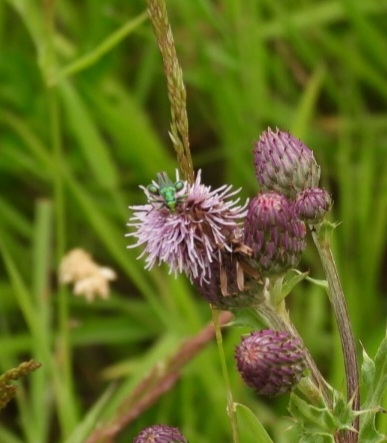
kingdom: Animalia
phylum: Arthropoda
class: Insecta
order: Coleoptera
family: Oedemeridae
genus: Oedemera
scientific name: Oedemera nobilis
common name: Swollen-thighed beetle
